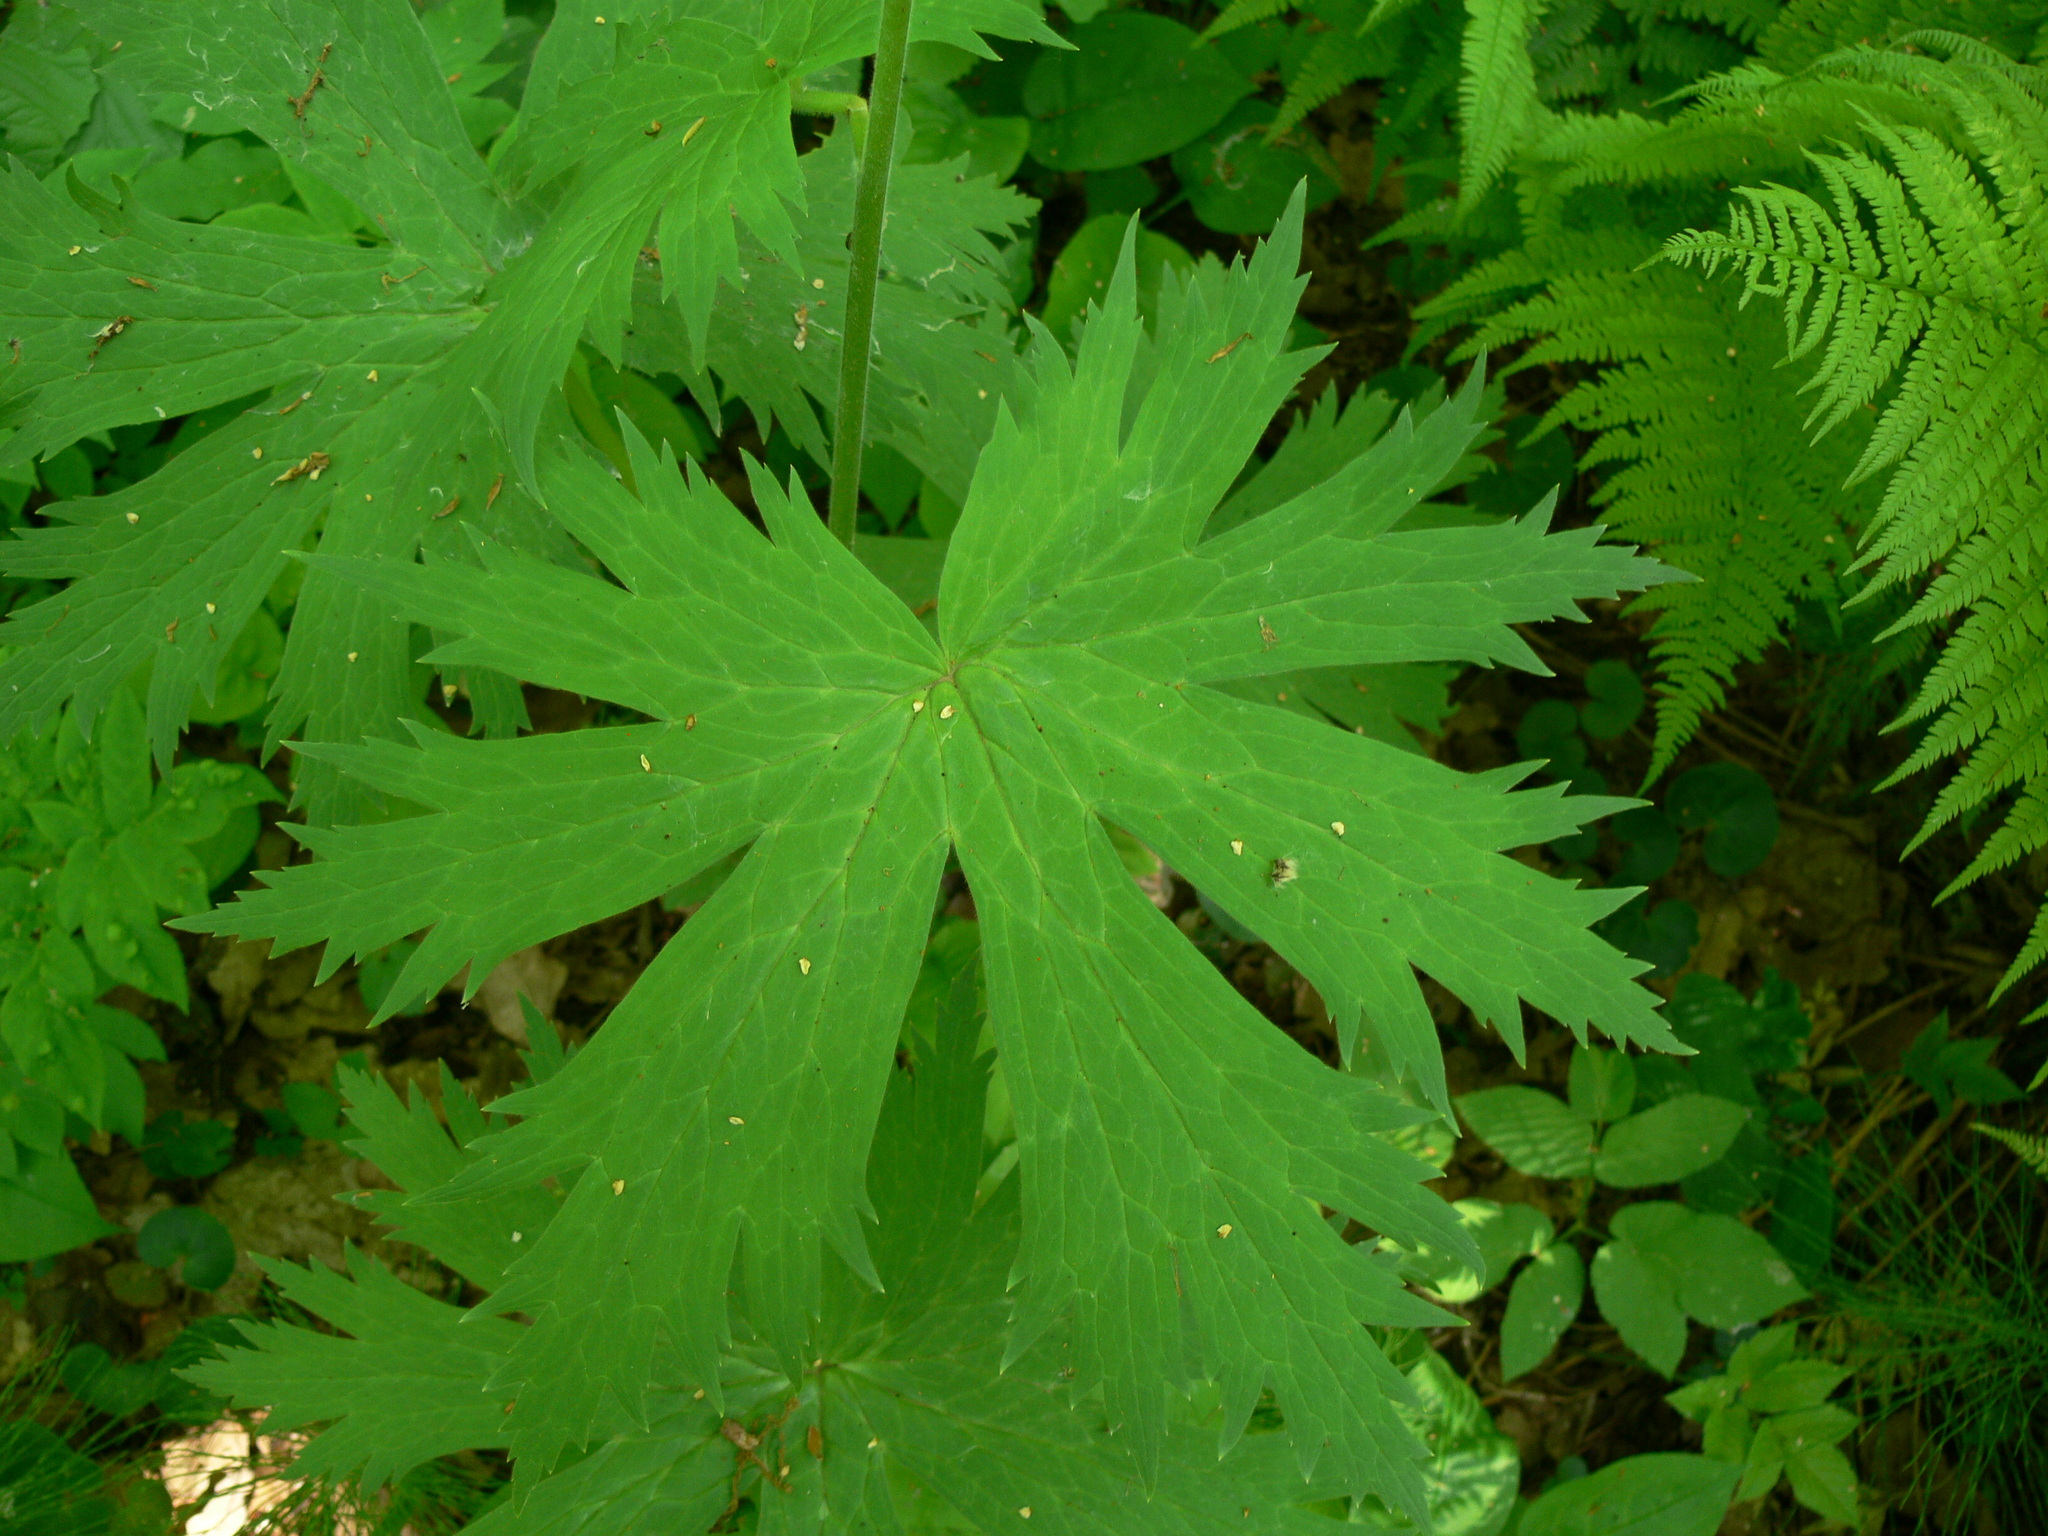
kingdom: Plantae
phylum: Tracheophyta
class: Magnoliopsida
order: Ranunculales
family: Ranunculaceae
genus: Aconitum
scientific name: Aconitum septentrionale
